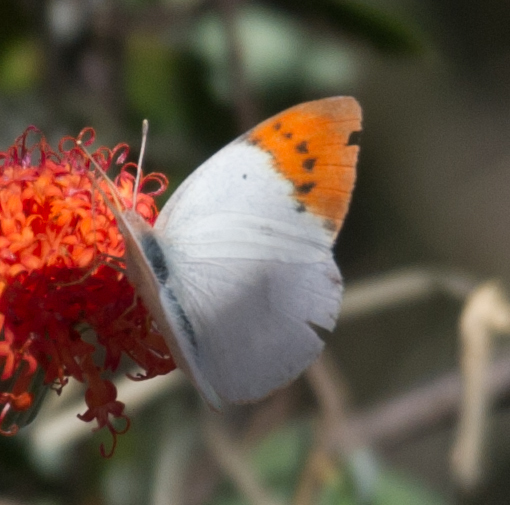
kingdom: Animalia
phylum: Arthropoda
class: Insecta
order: Lepidoptera
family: Pieridae
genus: Colotis
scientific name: Colotis ione
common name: Bushveld purple tip
